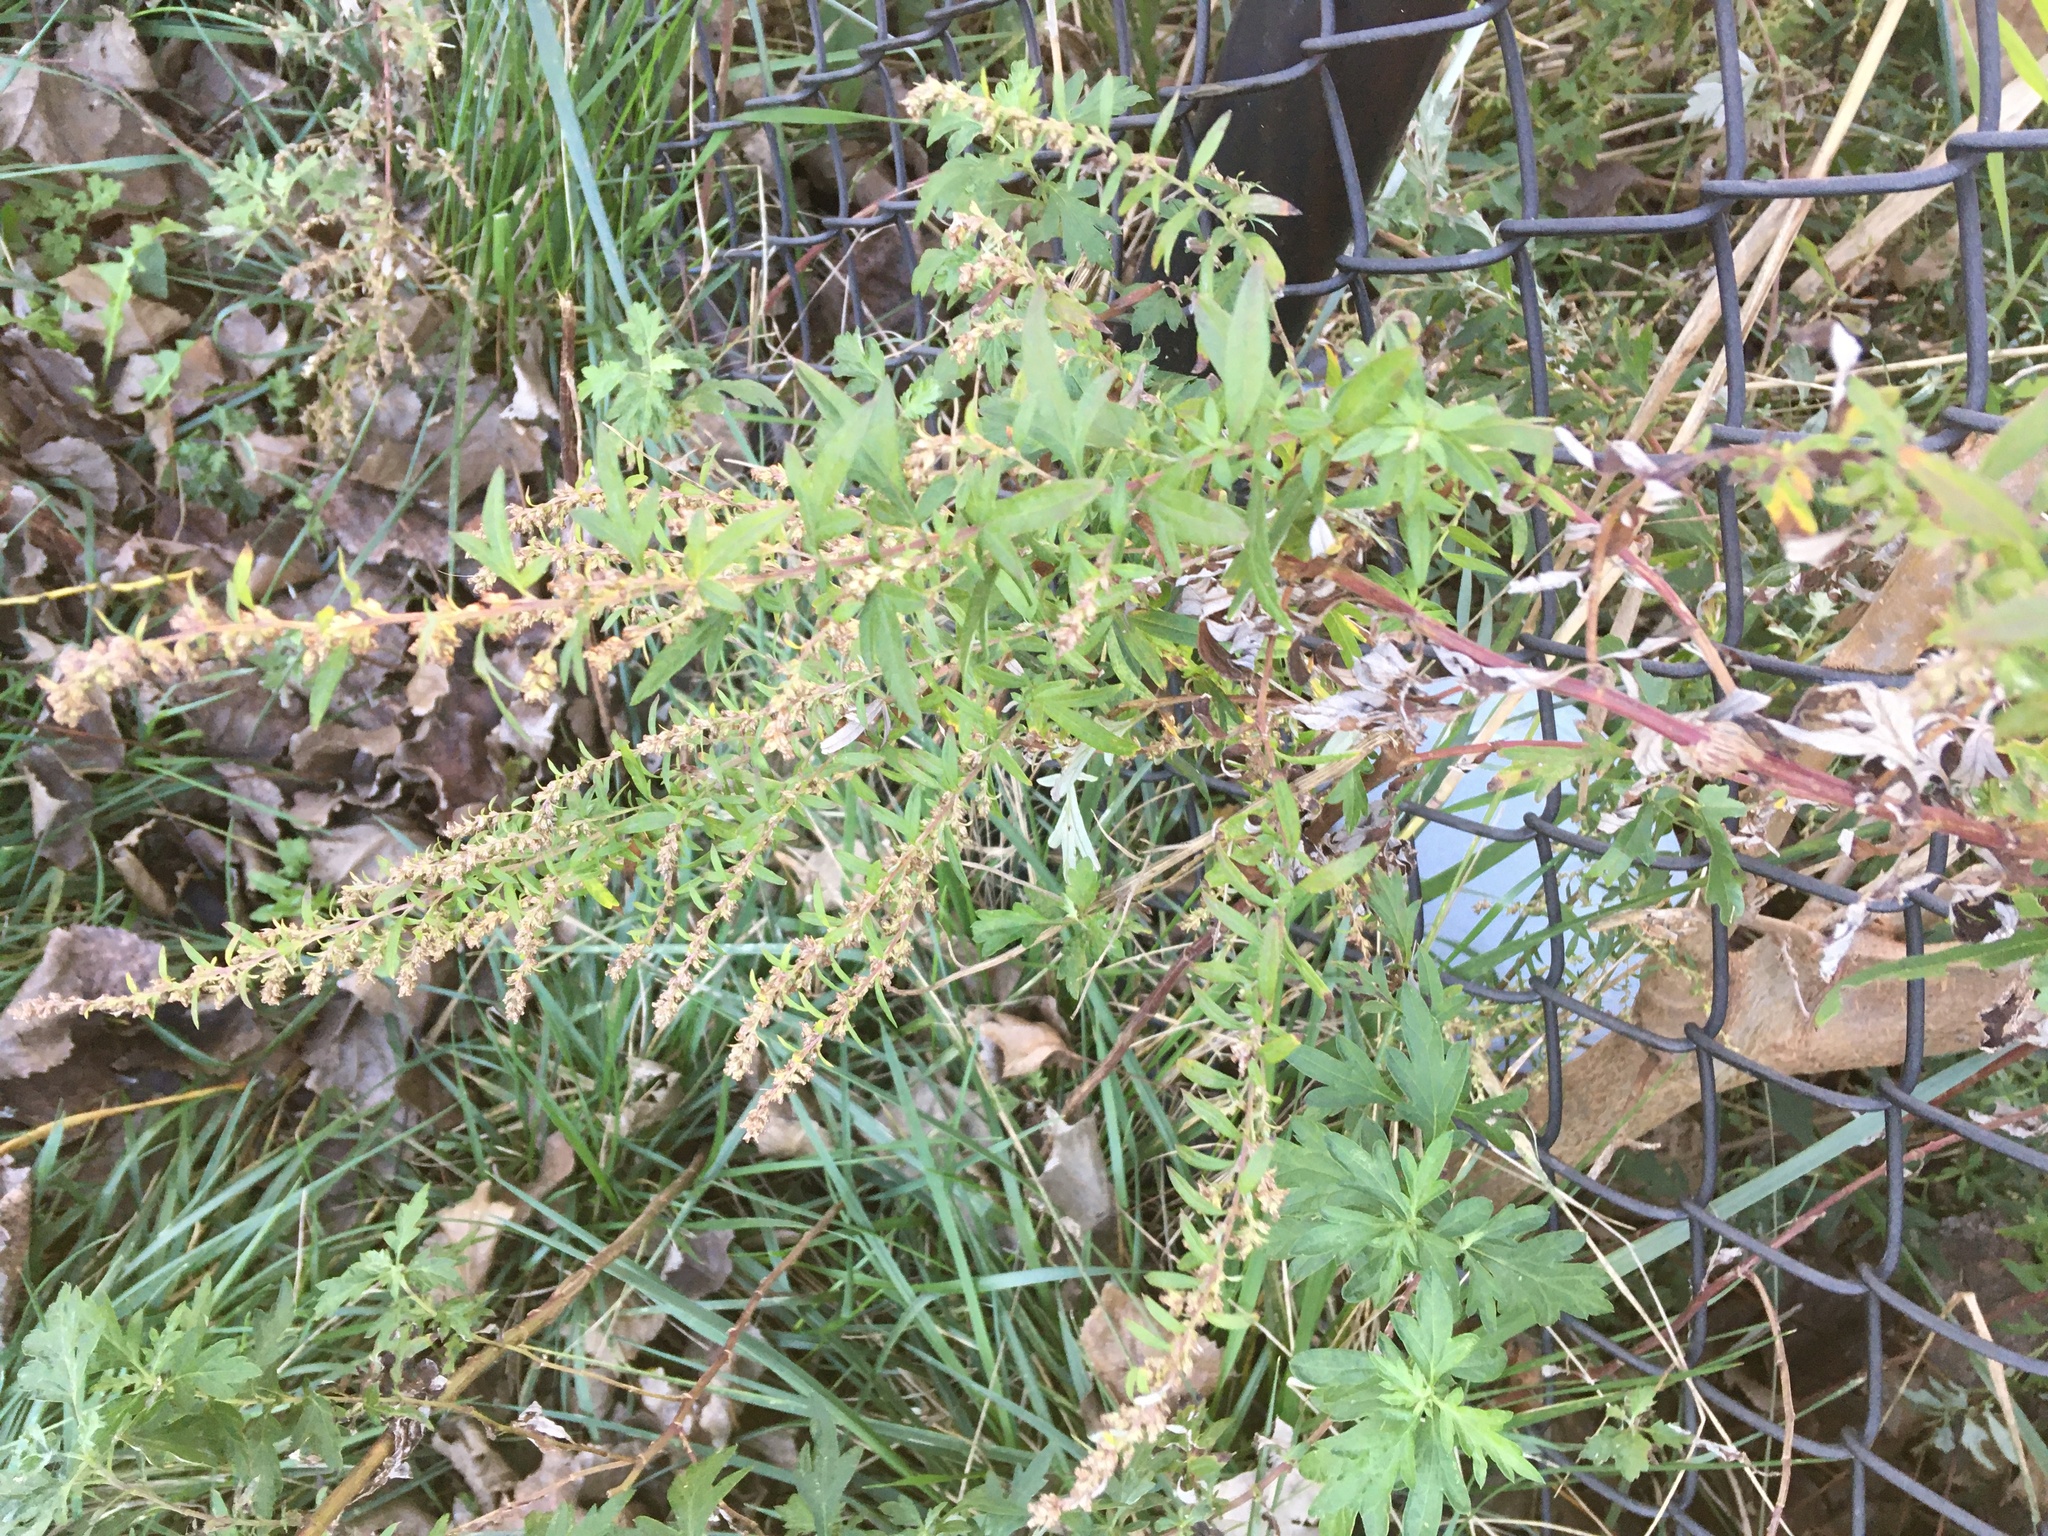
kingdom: Plantae
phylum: Tracheophyta
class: Magnoliopsida
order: Asterales
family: Asteraceae
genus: Artemisia
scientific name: Artemisia vulgaris
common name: Mugwort
